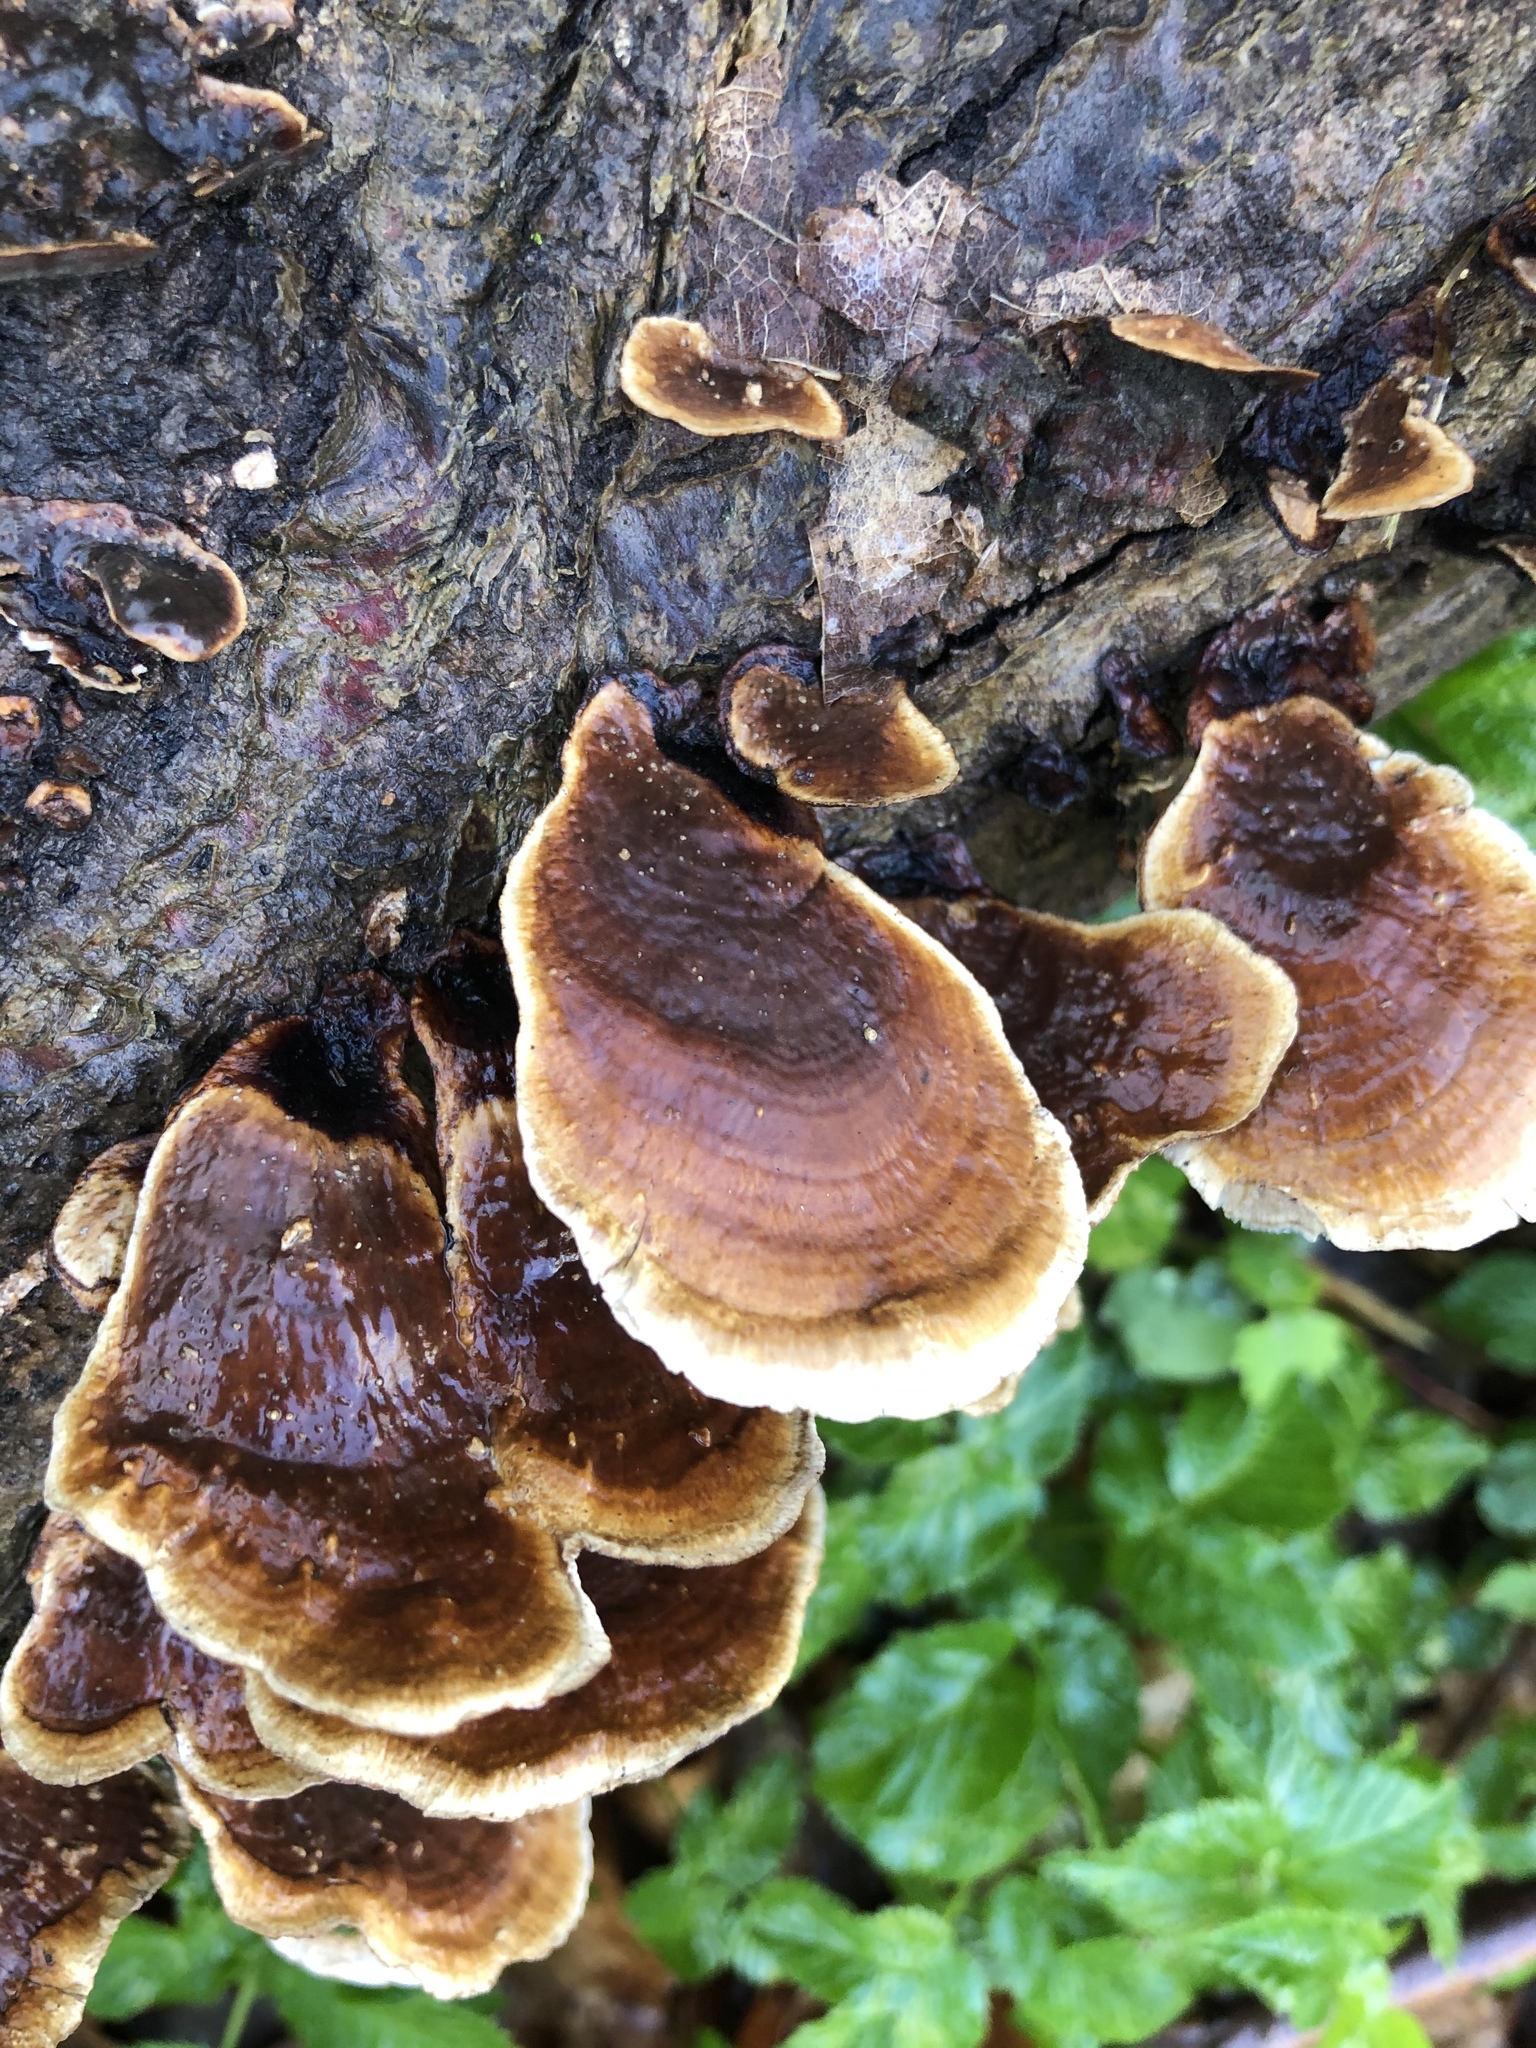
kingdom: Fungi
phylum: Basidiomycota
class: Agaricomycetes
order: Russulales
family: Stereaceae
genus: Stereum
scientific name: Stereum ostrea
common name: False turkeytail
